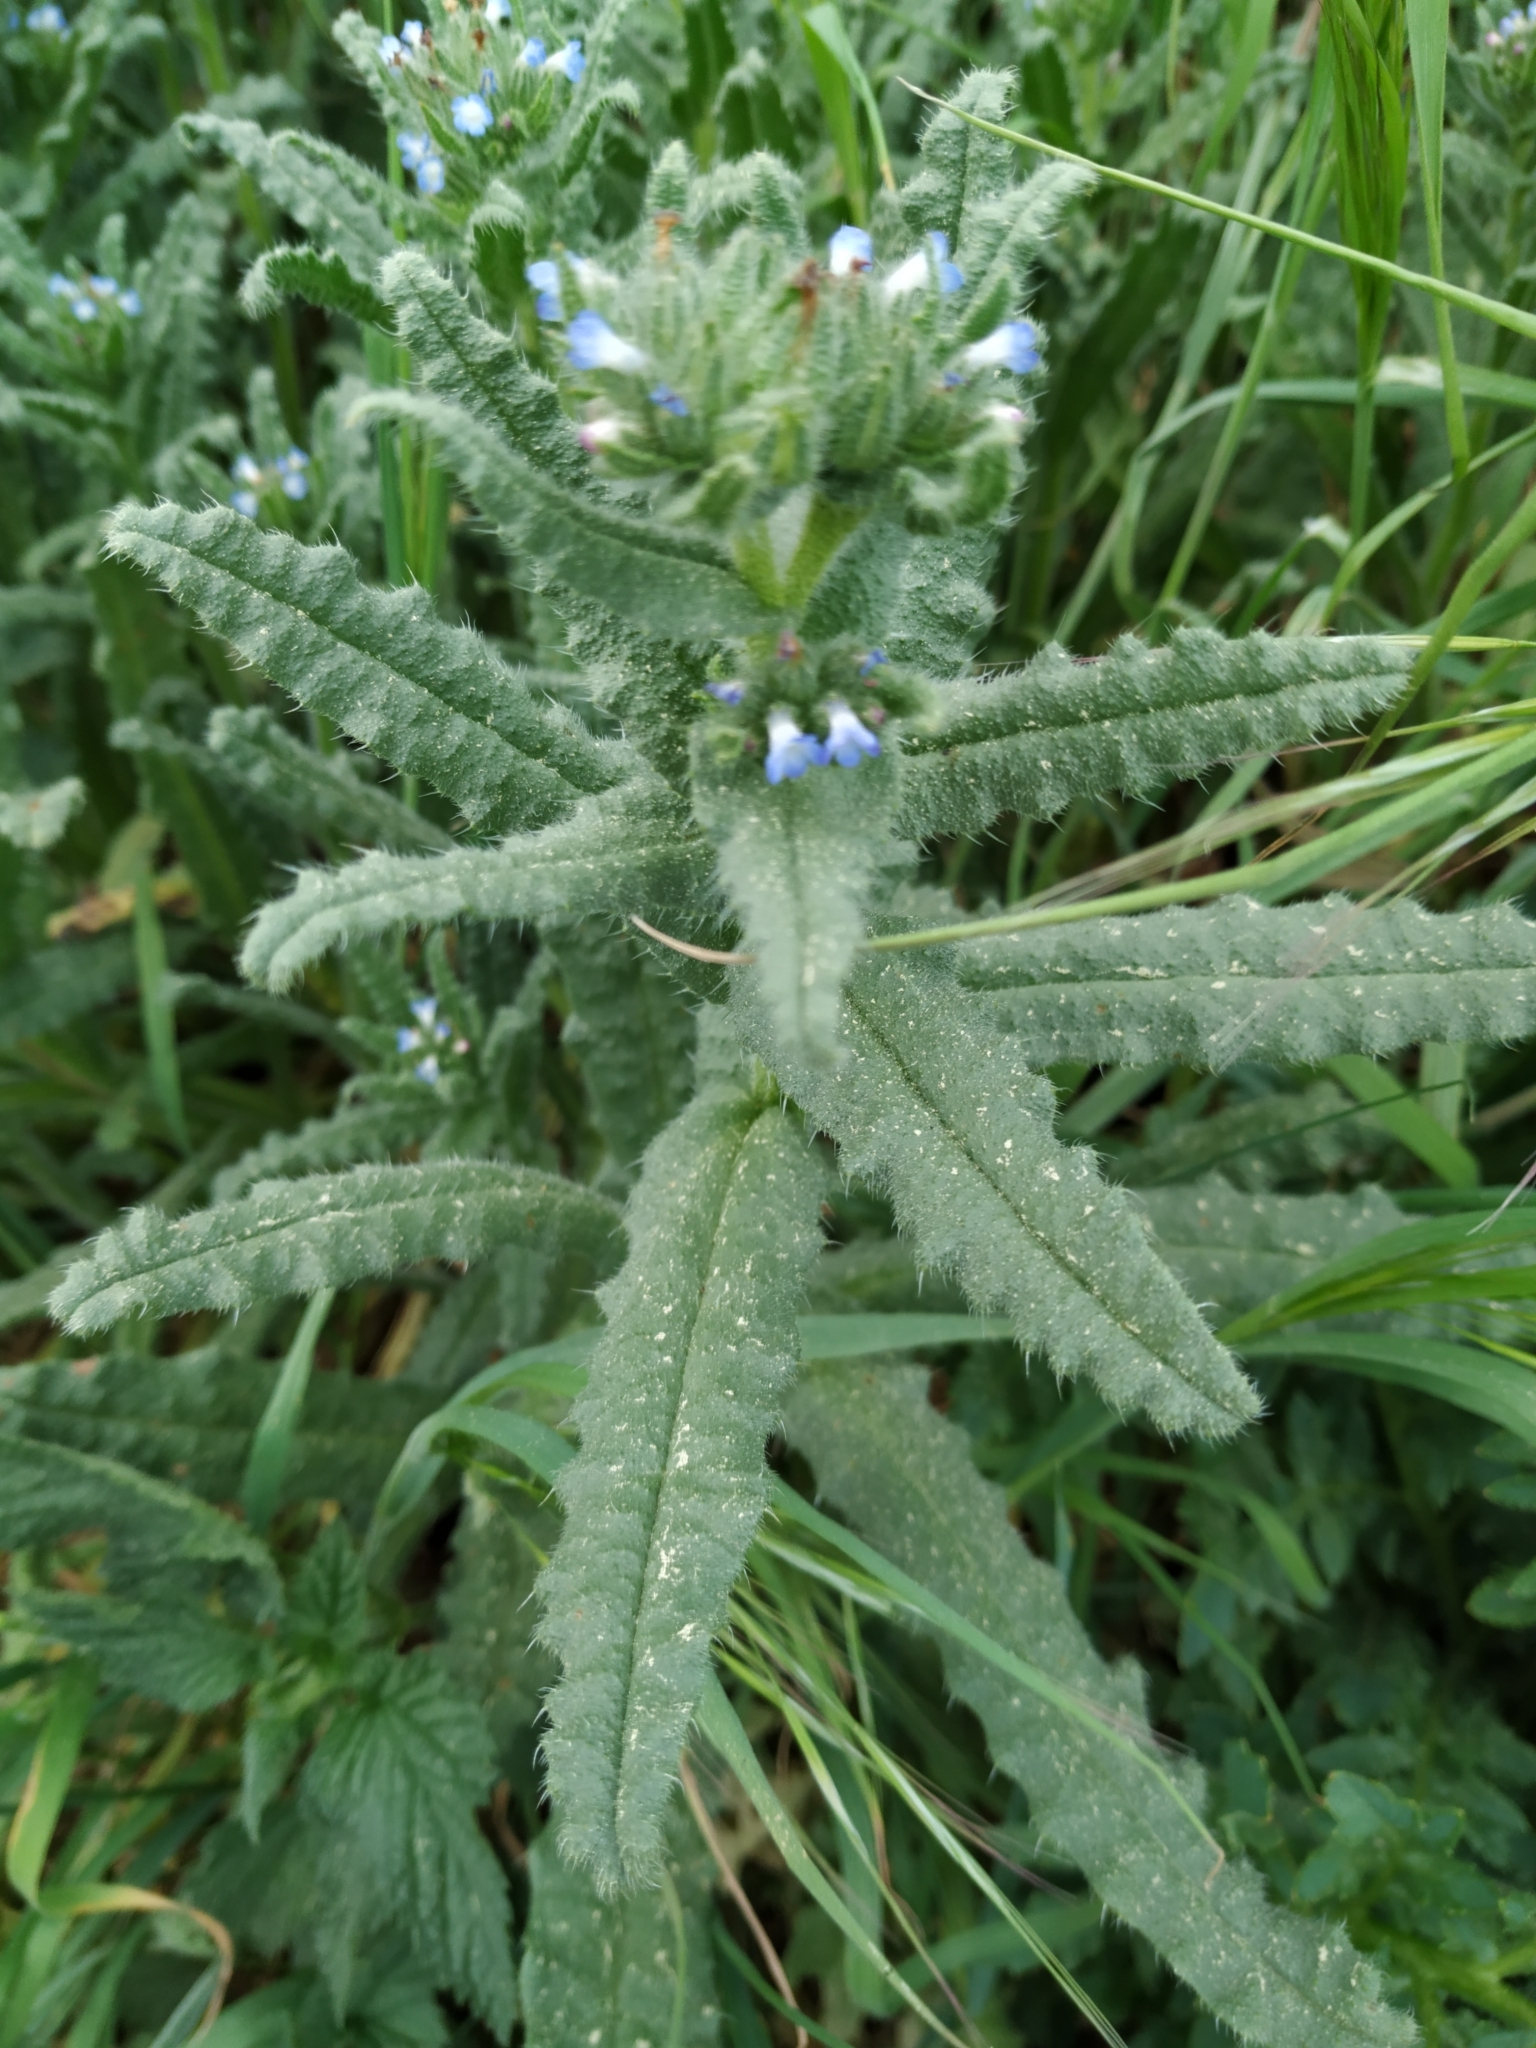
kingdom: Plantae
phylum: Tracheophyta
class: Magnoliopsida
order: Boraginales
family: Boraginaceae
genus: Lycopsis
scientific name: Lycopsis arvensis
